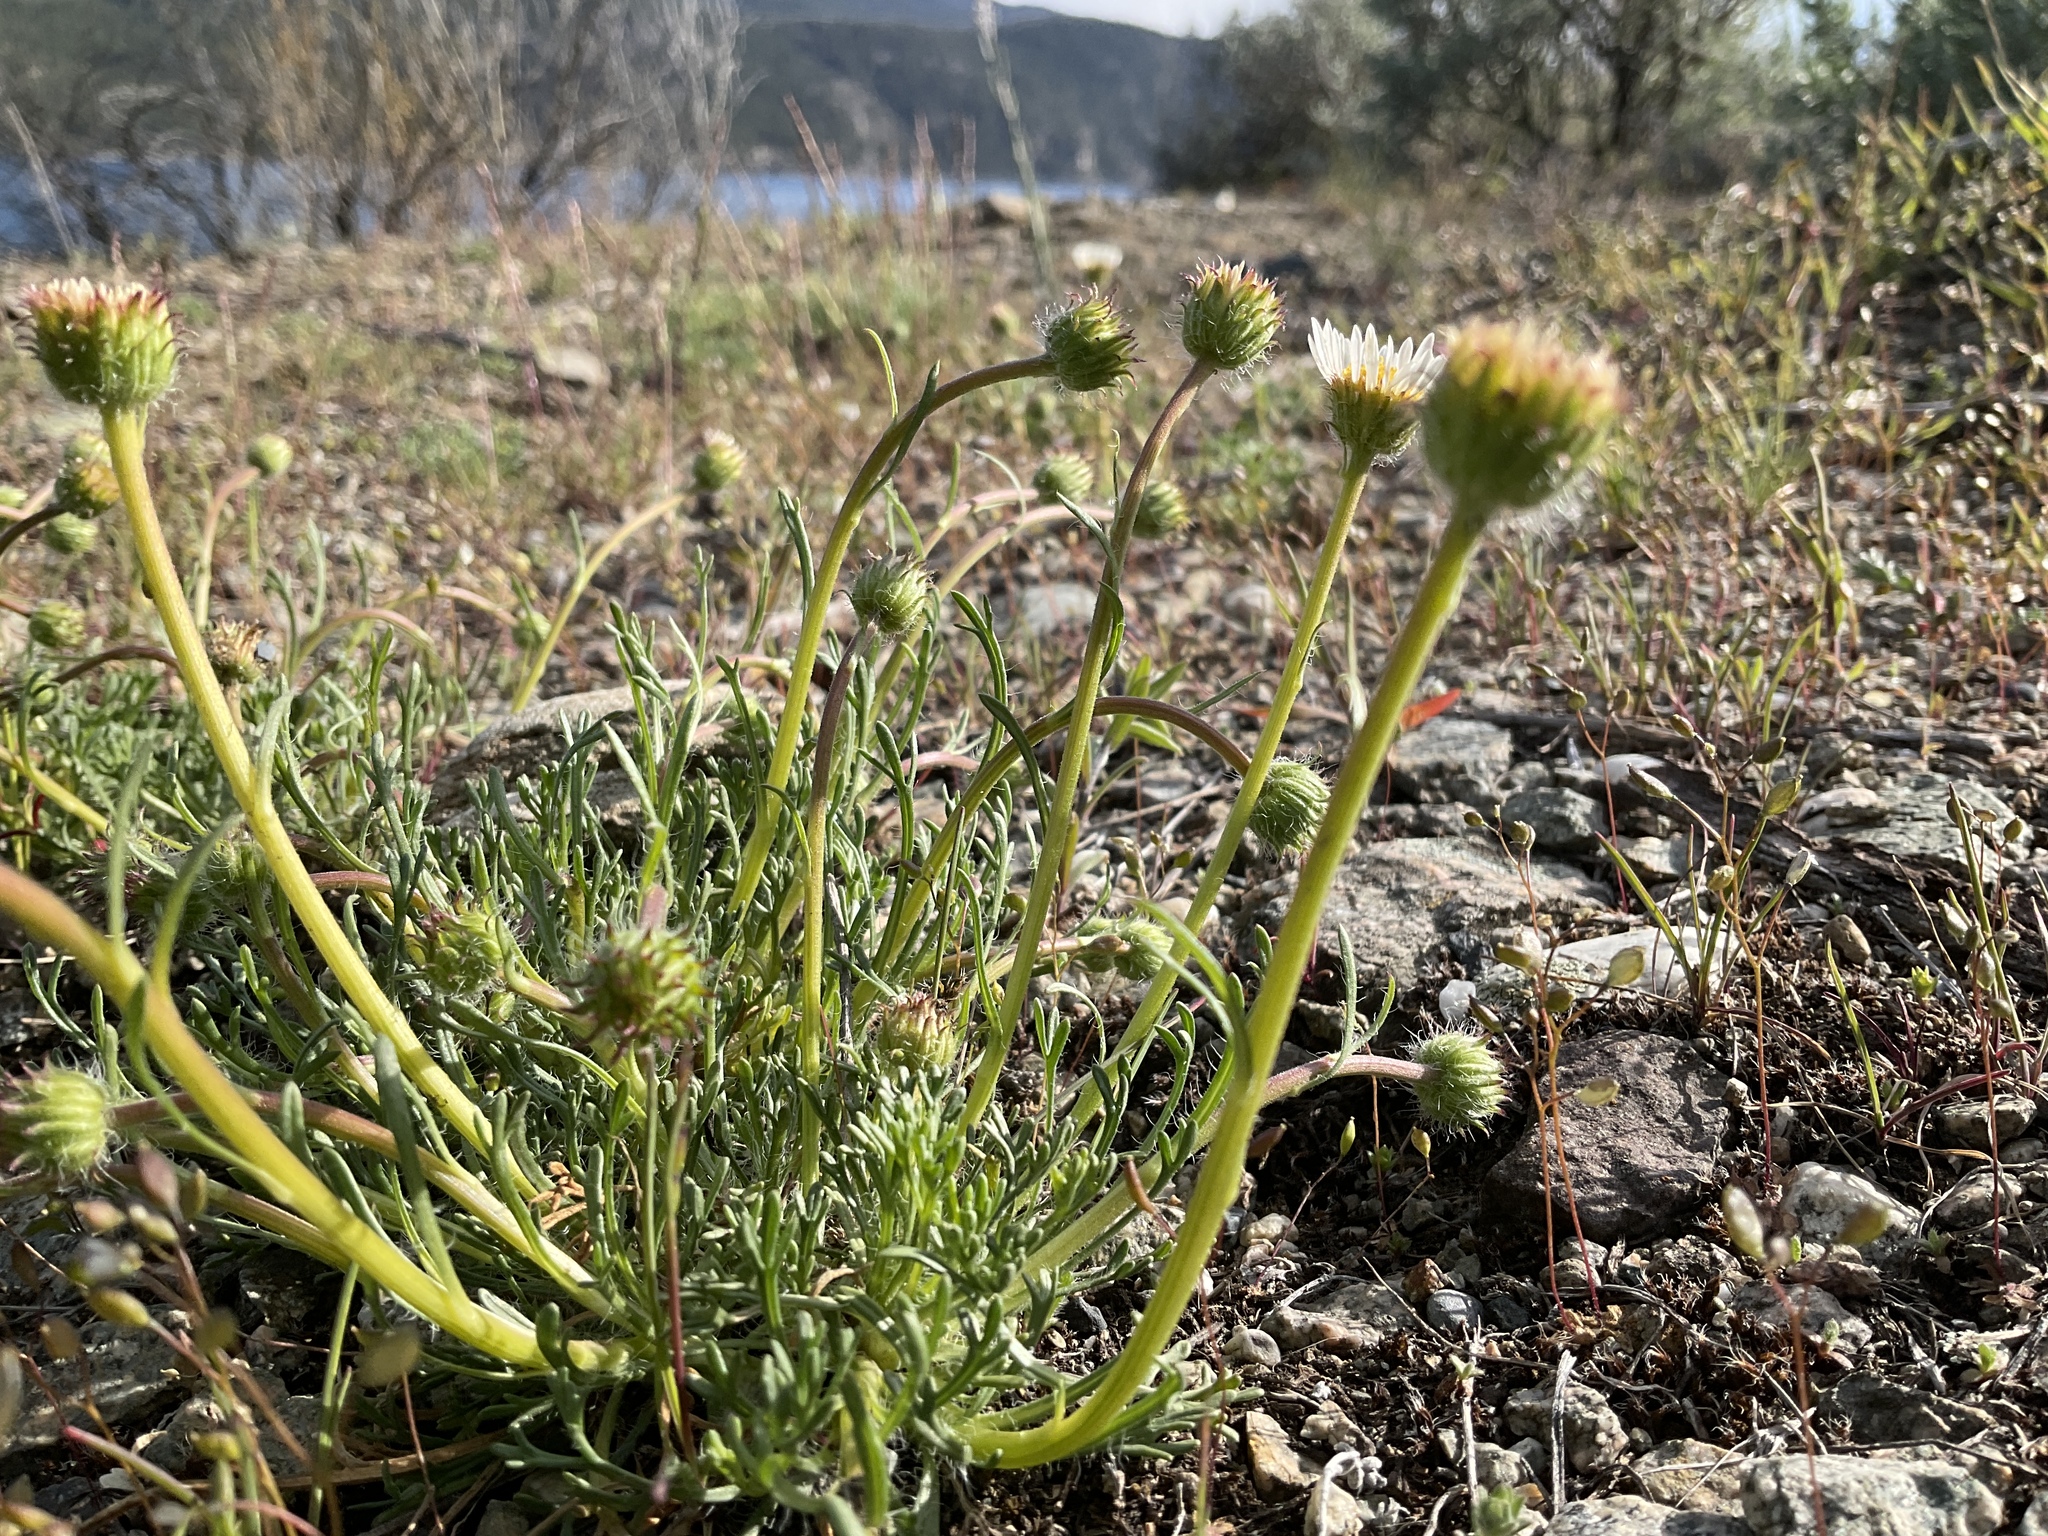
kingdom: Plantae
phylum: Tracheophyta
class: Magnoliopsida
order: Asterales
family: Asteraceae
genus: Erigeron
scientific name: Erigeron compositus
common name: Dwarf mountain fleabane
